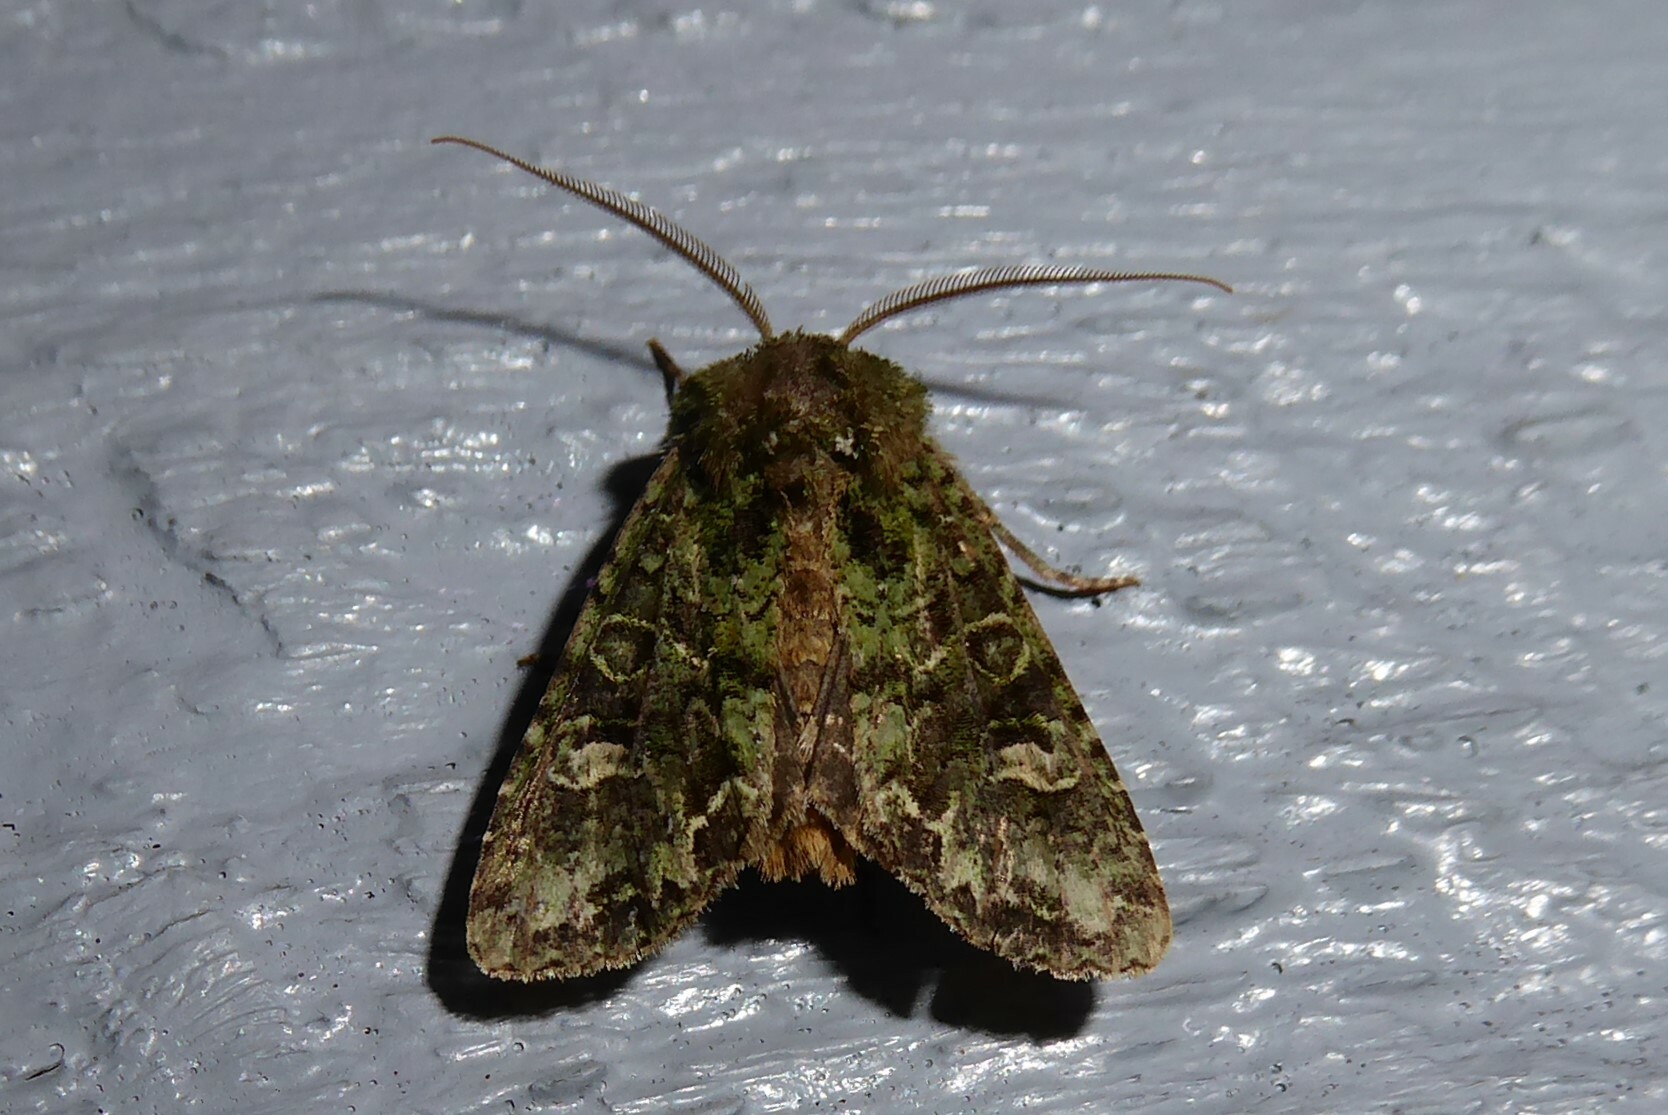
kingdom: Animalia
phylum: Arthropoda
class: Insecta
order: Lepidoptera
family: Noctuidae
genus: Ichneutica
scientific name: Ichneutica
